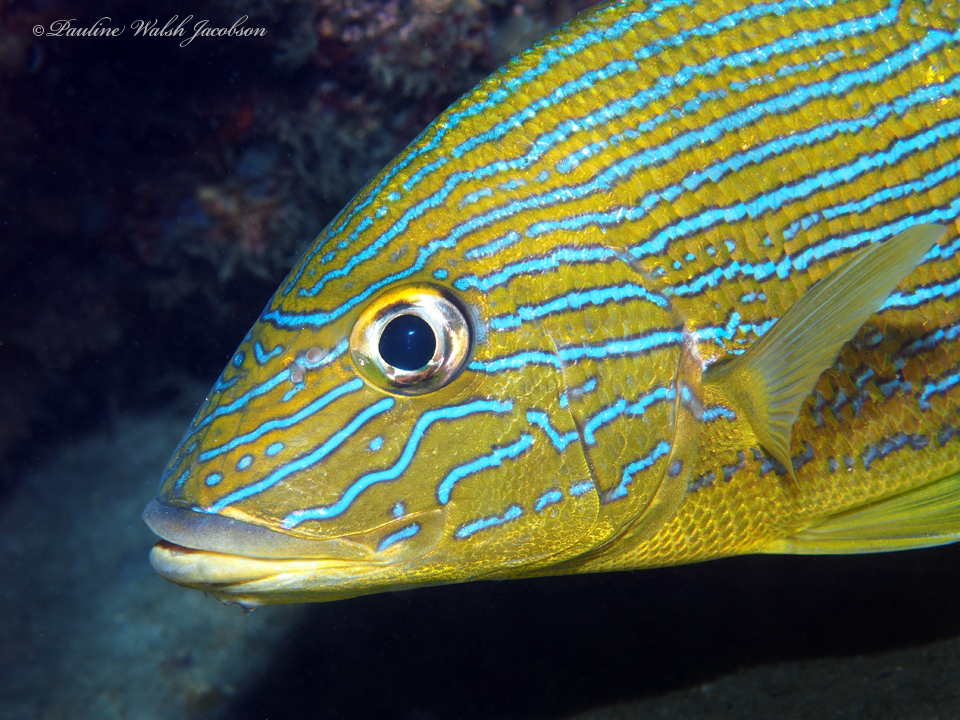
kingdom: Animalia
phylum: Chordata
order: Perciformes
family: Haemulidae
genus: Haemulon
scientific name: Haemulon sciurus
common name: Bluestriped grunt
